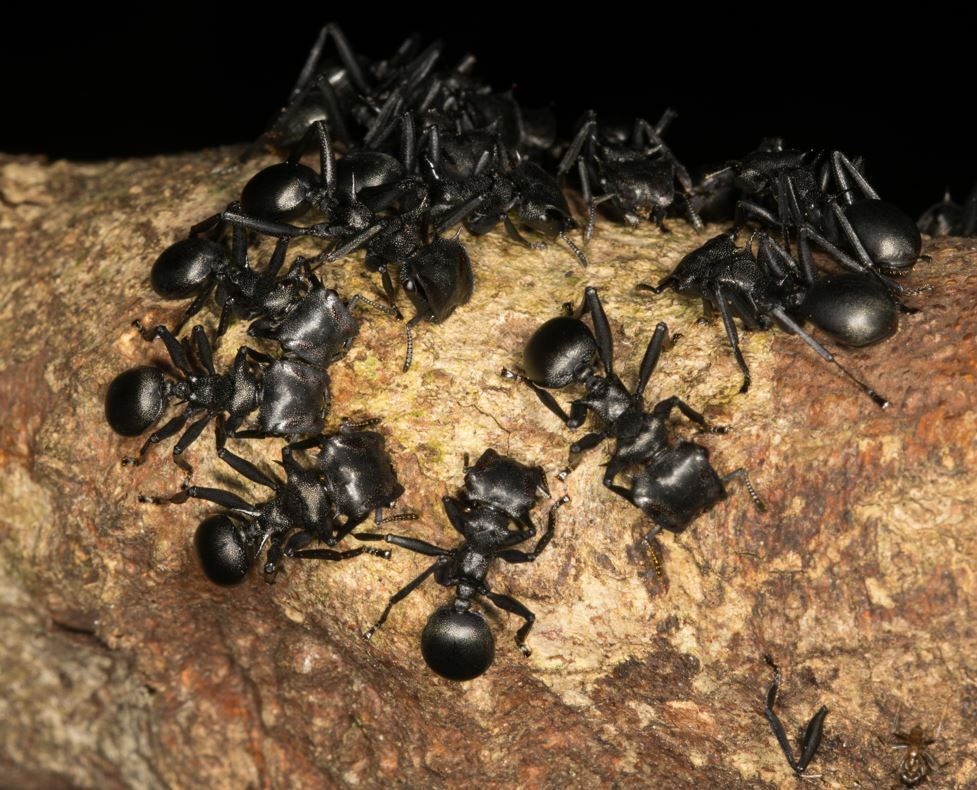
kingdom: Animalia
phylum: Arthropoda
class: Insecta
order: Hymenoptera
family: Formicidae
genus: Cephalotes
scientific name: Cephalotes atratus
